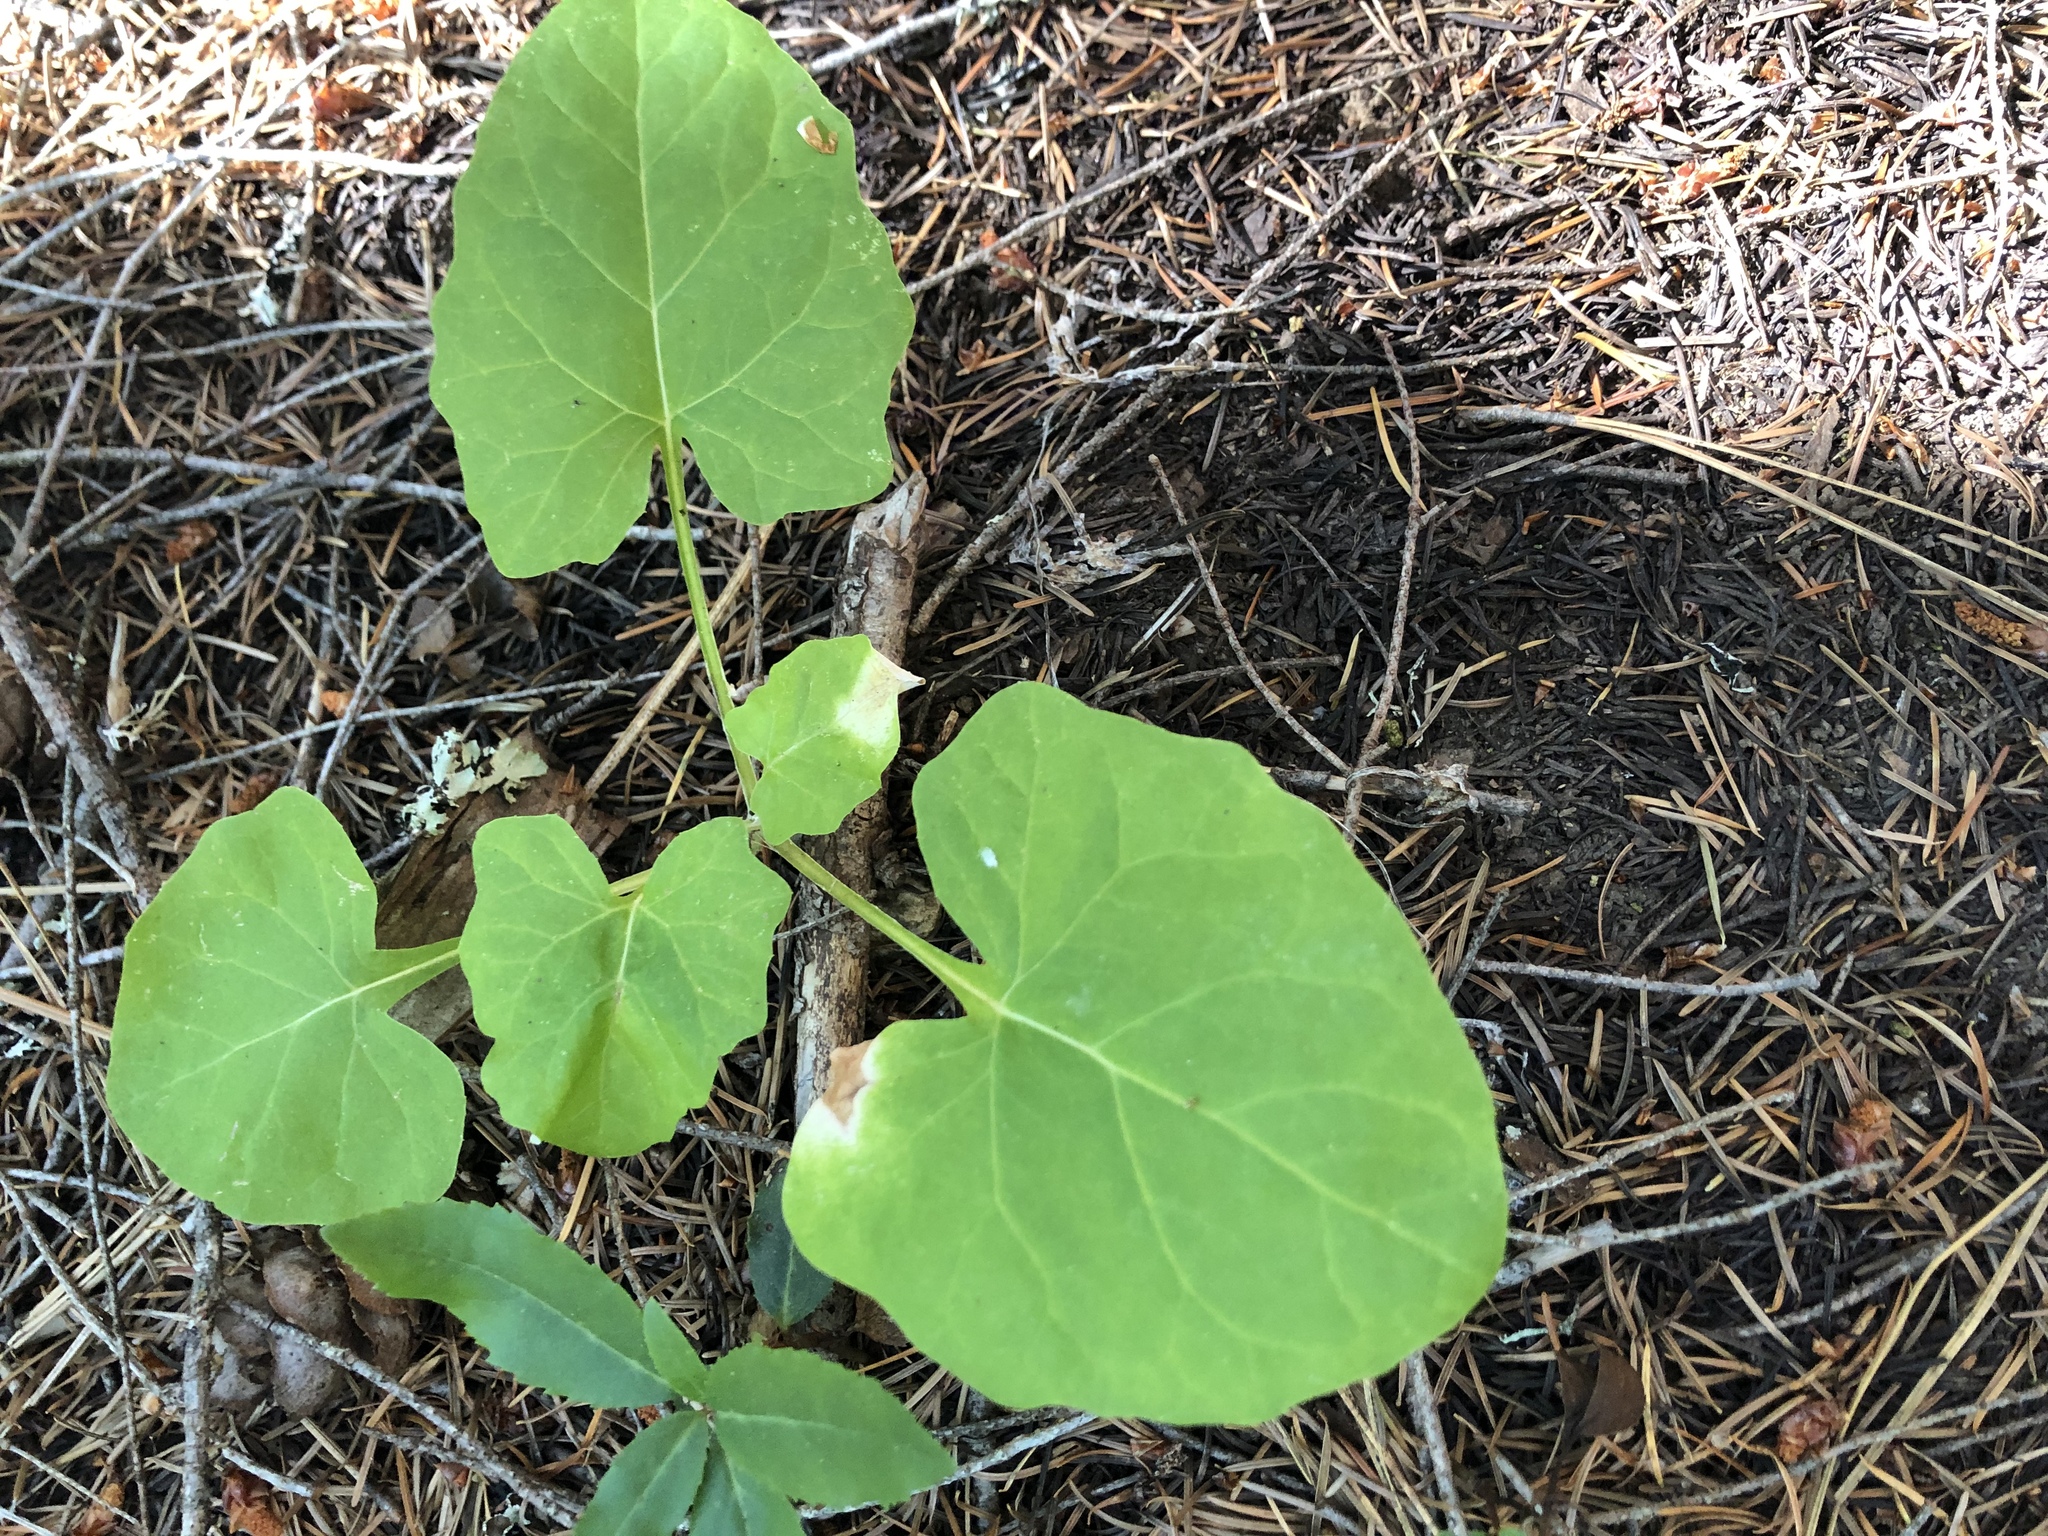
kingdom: Plantae
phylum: Tracheophyta
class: Magnoliopsida
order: Asterales
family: Asteraceae
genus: Adenocaulon
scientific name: Adenocaulon bicolor
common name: Trailplant
